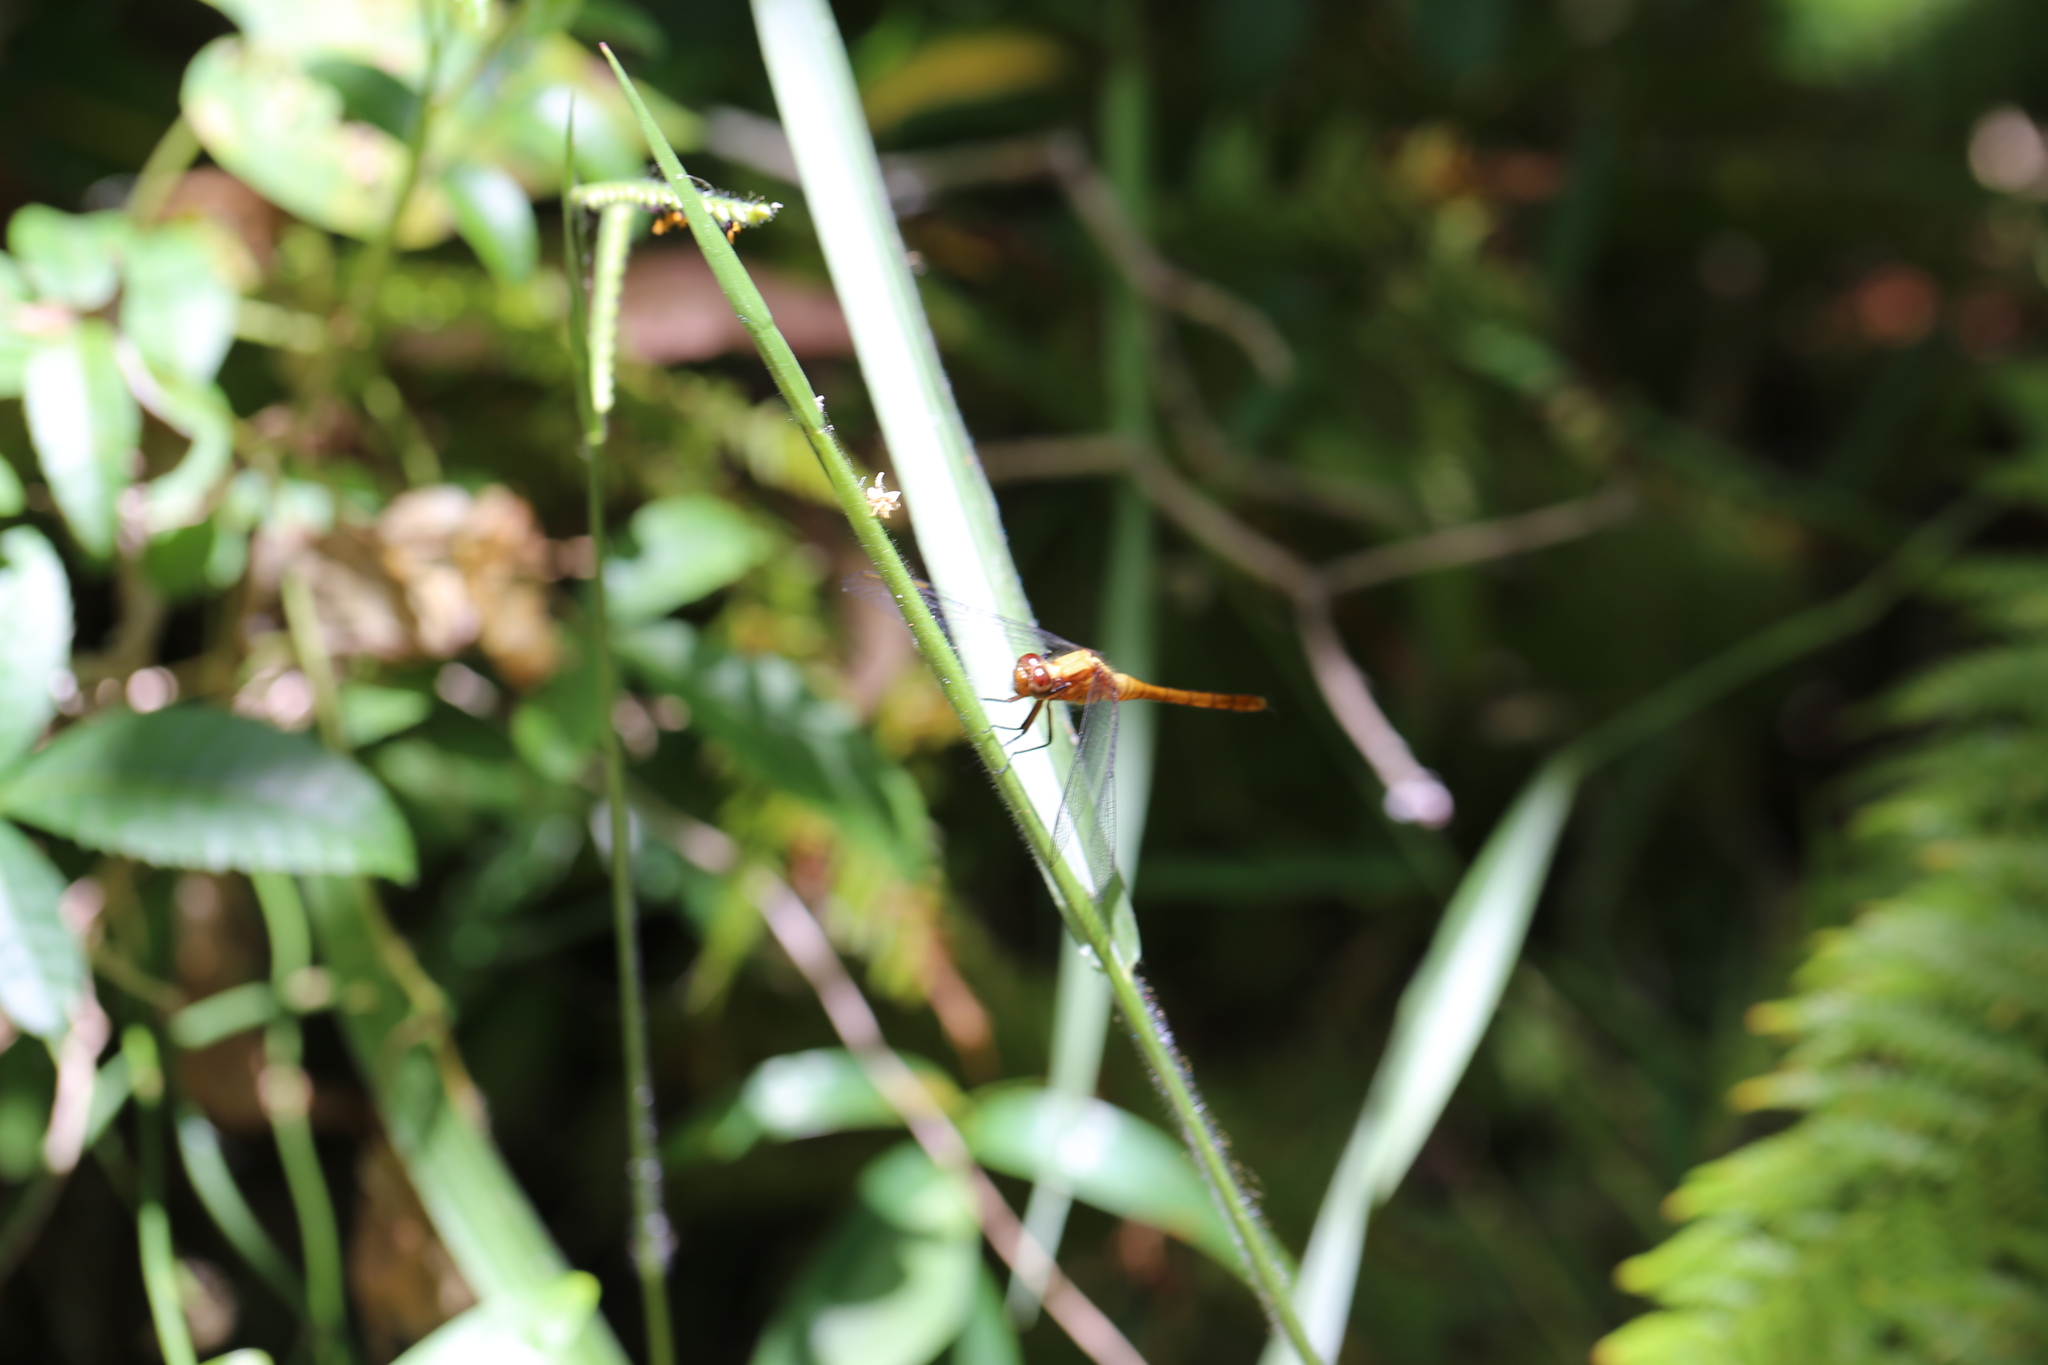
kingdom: Animalia
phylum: Arthropoda
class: Insecta
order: Odonata
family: Libellulidae
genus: Orthetrum
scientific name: Orthetrum villosovittatum
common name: Firery skimmer
